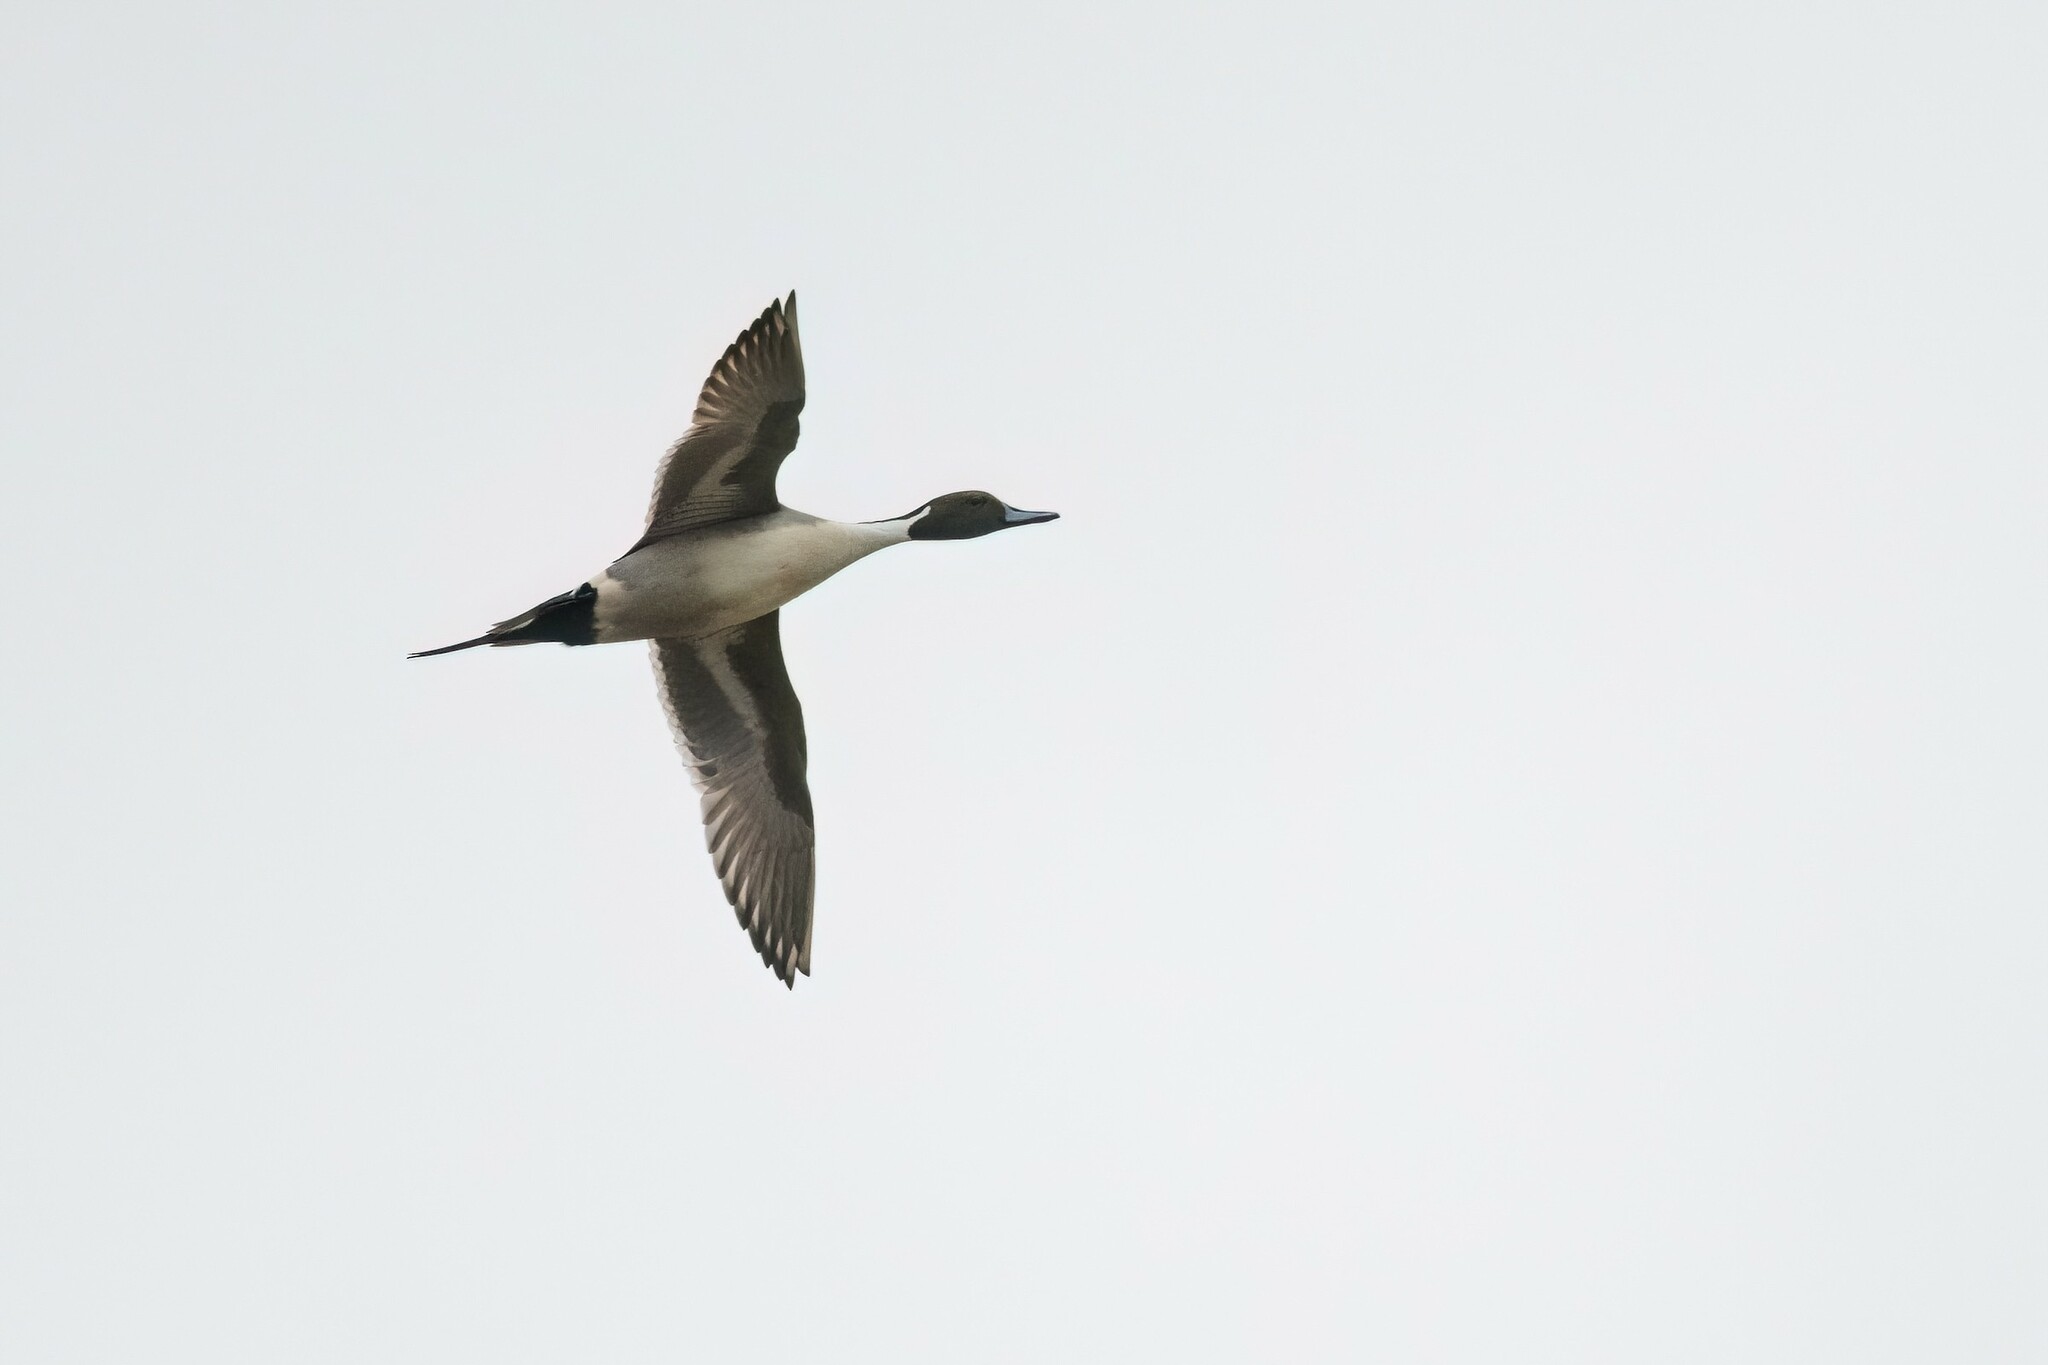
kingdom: Animalia
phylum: Chordata
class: Aves
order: Anseriformes
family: Anatidae
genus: Anas
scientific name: Anas acuta
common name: Northern pintail
